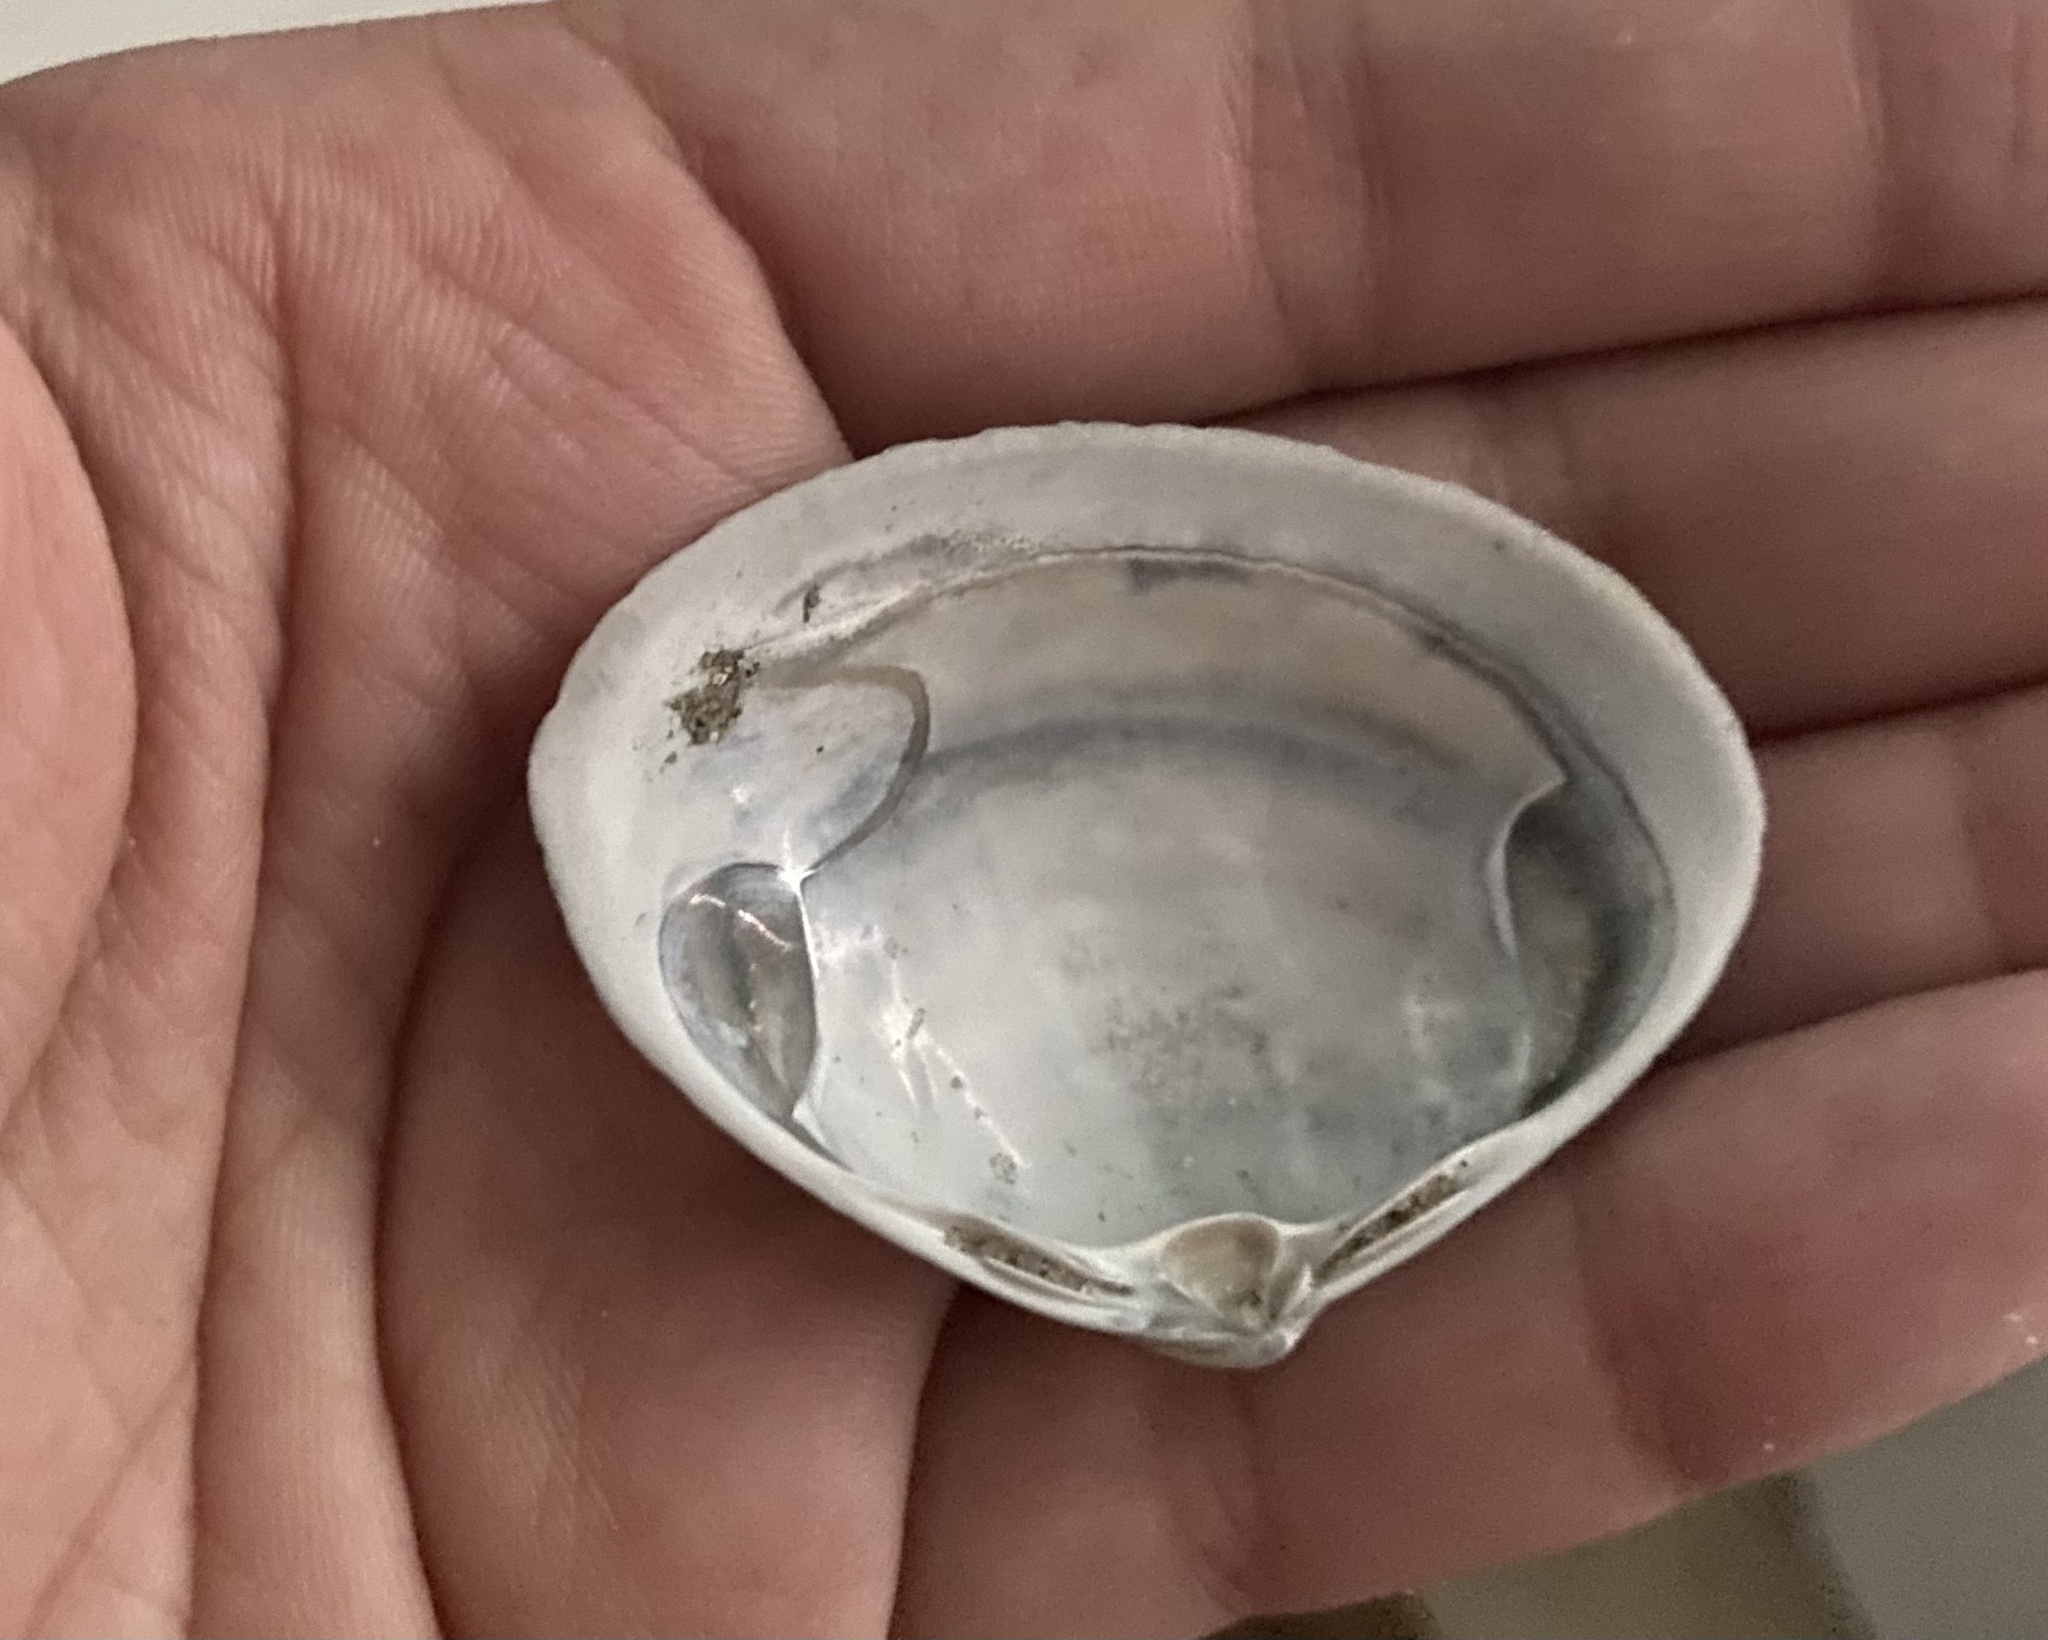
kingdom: Animalia
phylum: Mollusca
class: Bivalvia
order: Venerida
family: Mactridae
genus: Spisula
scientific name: Spisula solidissima
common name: Atlantic surf clam
